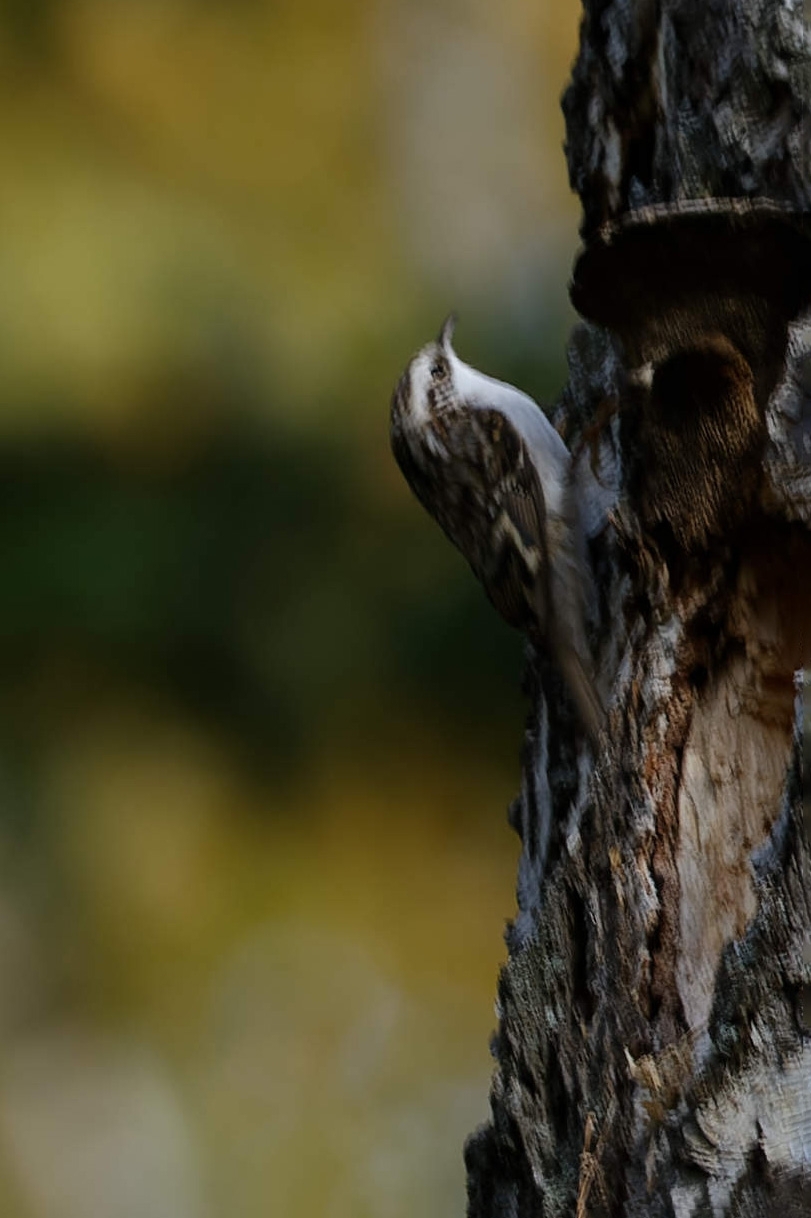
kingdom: Animalia
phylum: Chordata
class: Aves
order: Passeriformes
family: Certhiidae
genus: Certhia
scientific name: Certhia familiaris
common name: Eurasian treecreeper
